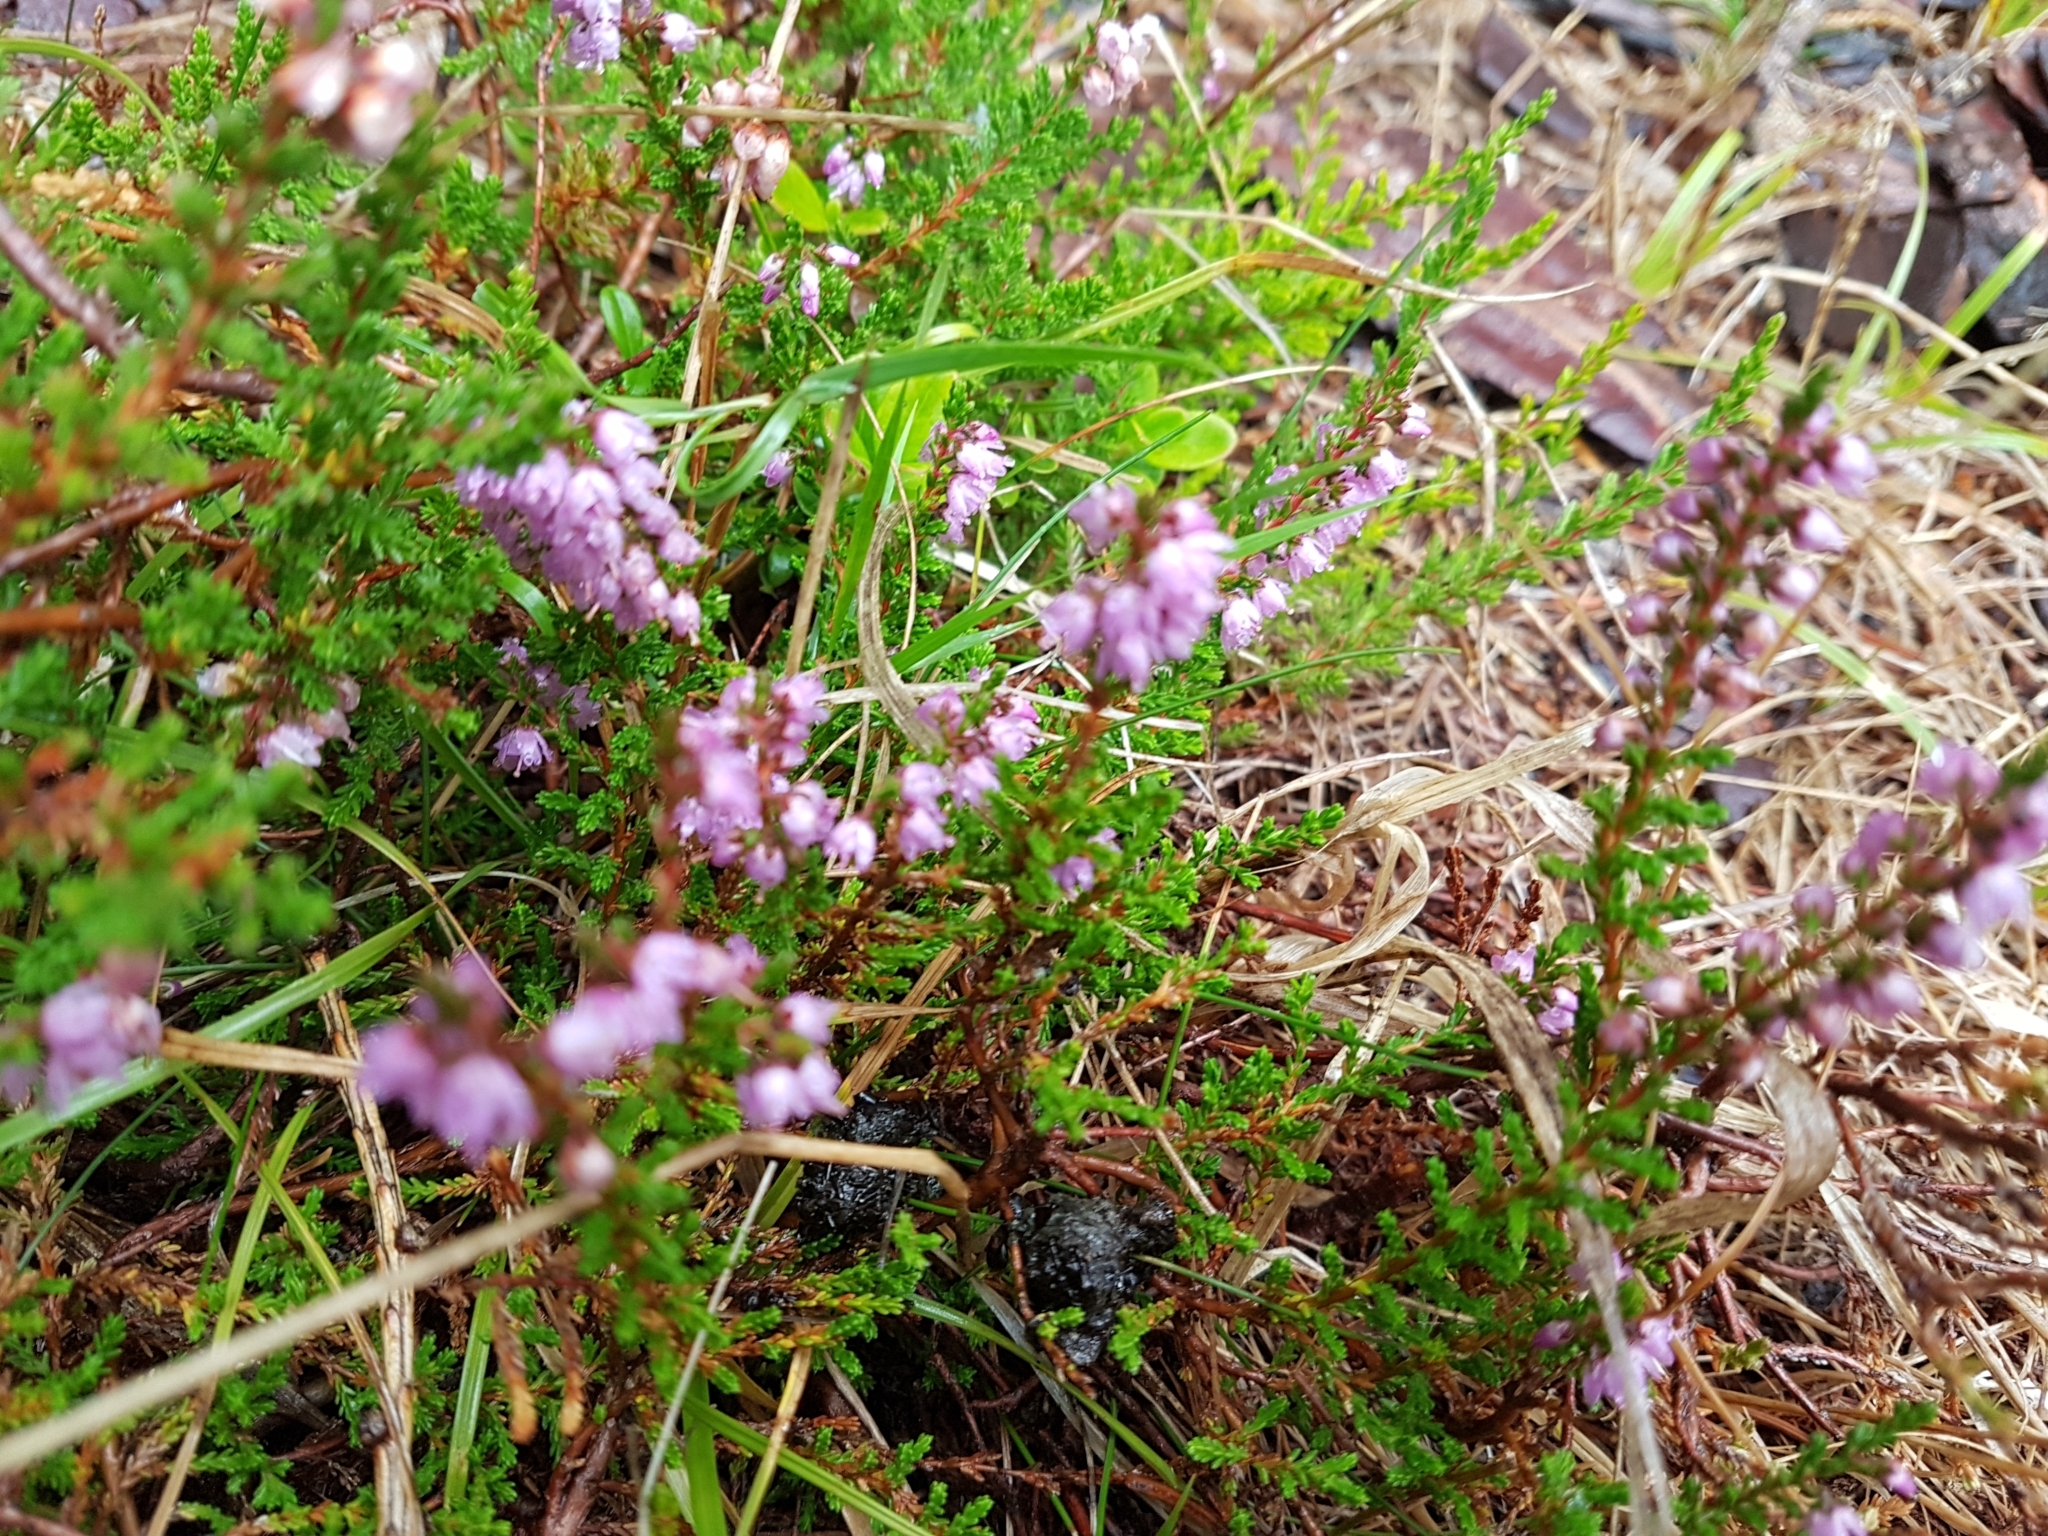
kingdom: Plantae
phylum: Tracheophyta
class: Magnoliopsida
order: Ericales
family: Ericaceae
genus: Calluna
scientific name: Calluna vulgaris
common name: Heather
